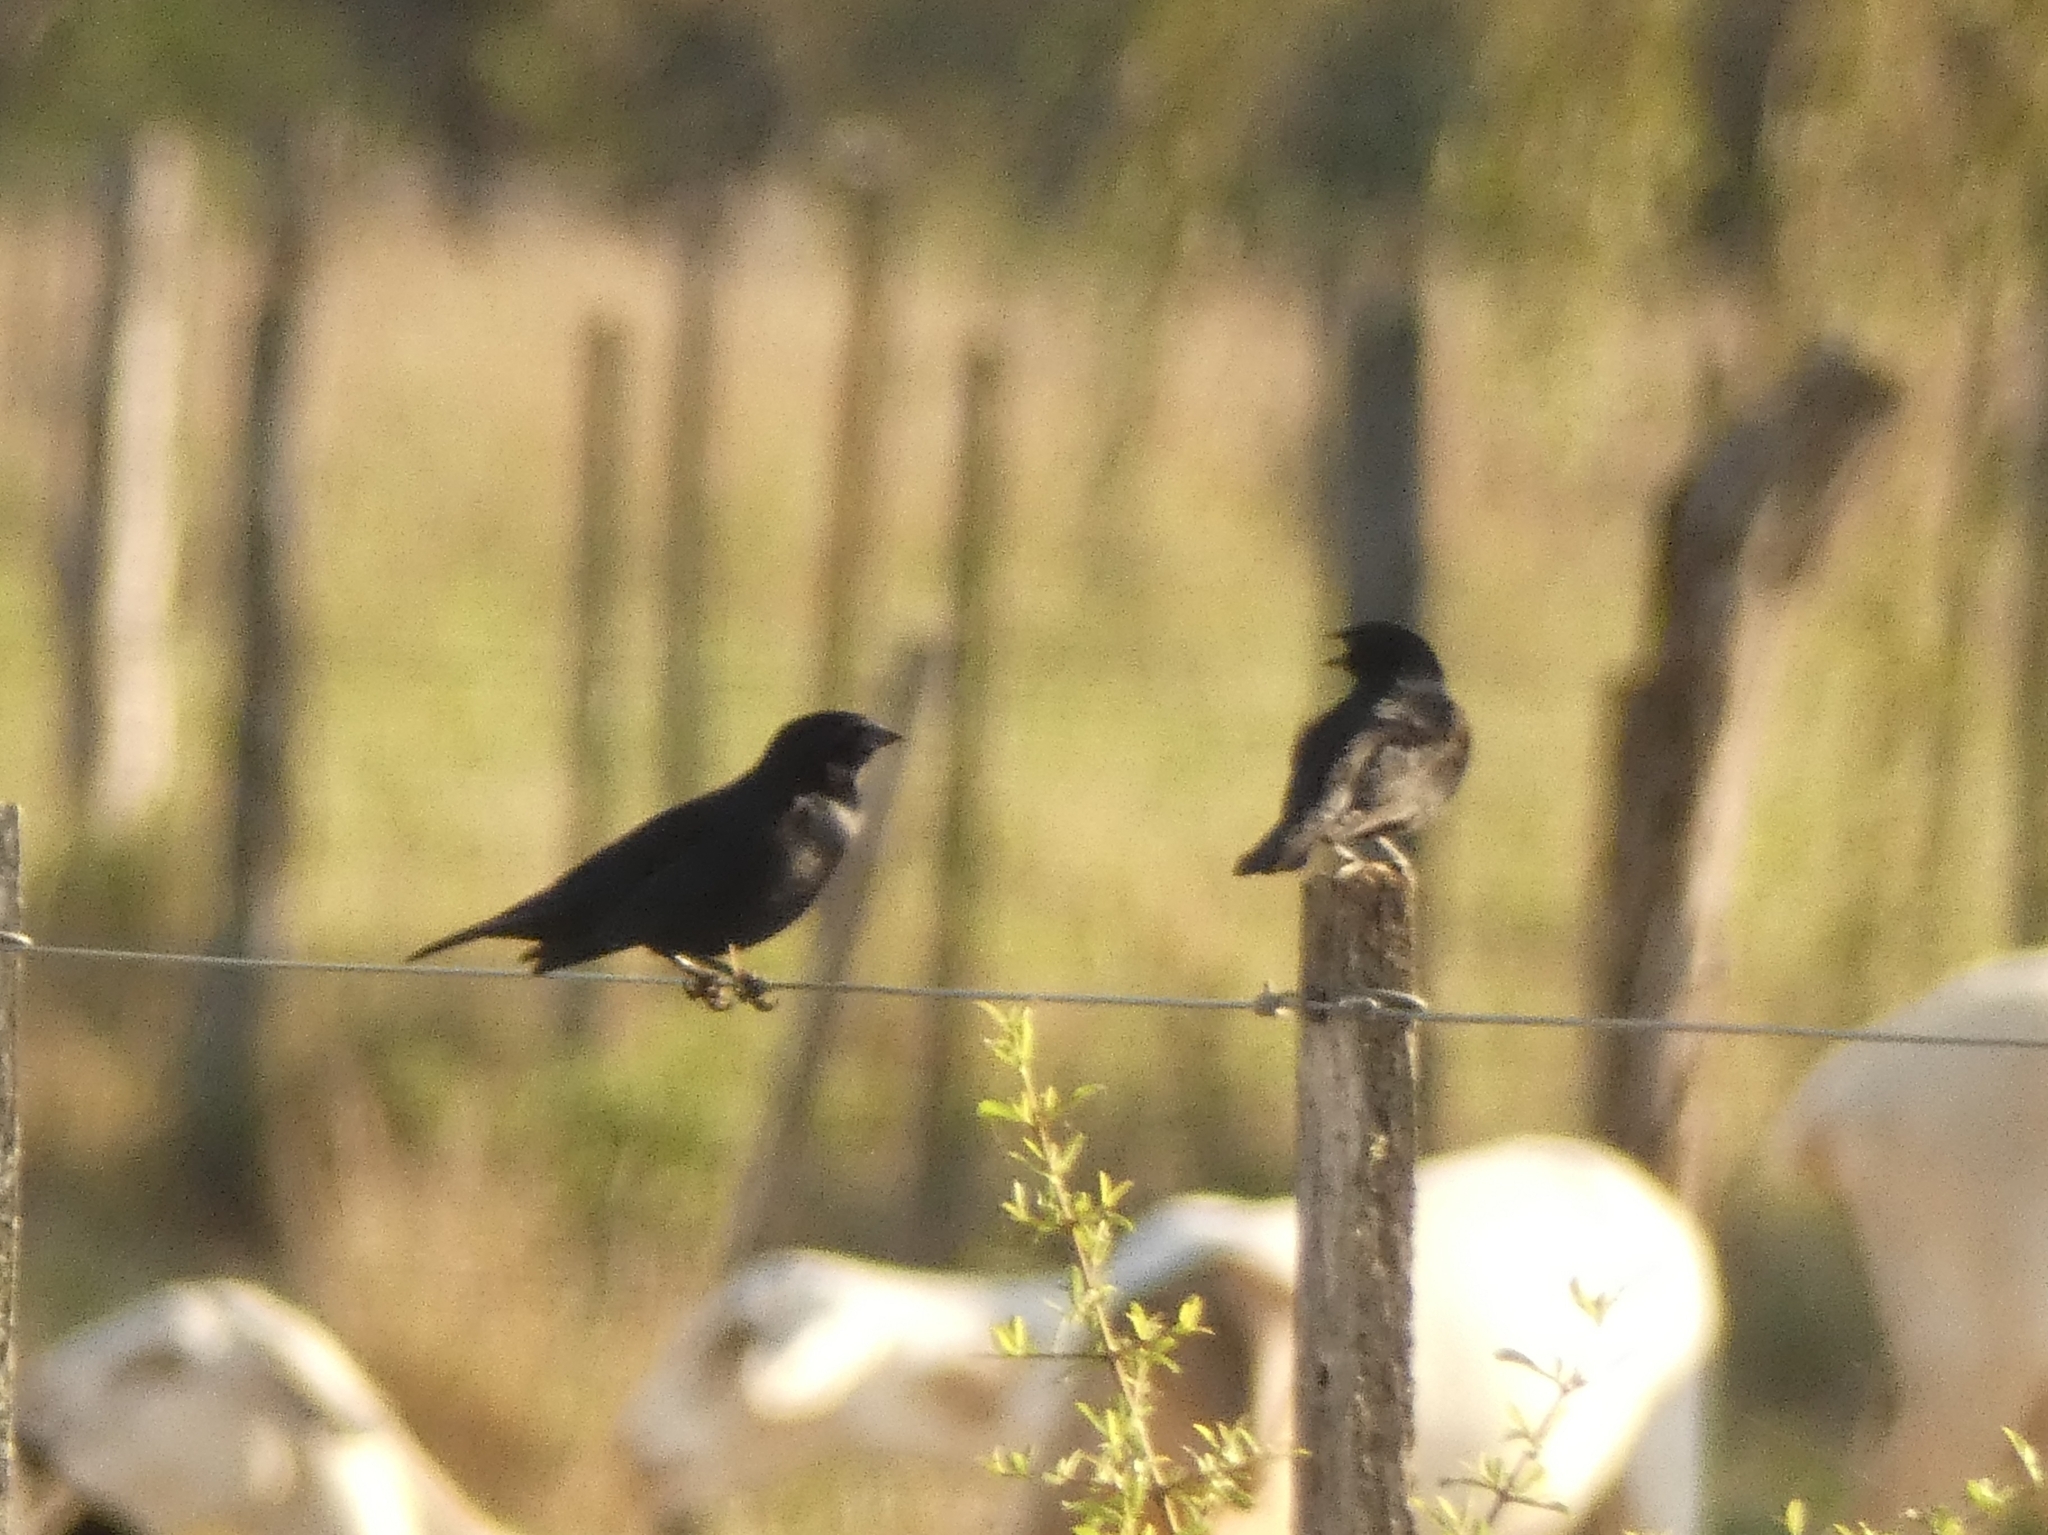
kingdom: Animalia
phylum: Chordata
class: Aves
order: Passeriformes
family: Icteridae
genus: Molothrus
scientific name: Molothrus rufoaxillaris
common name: Screaming cowbird
